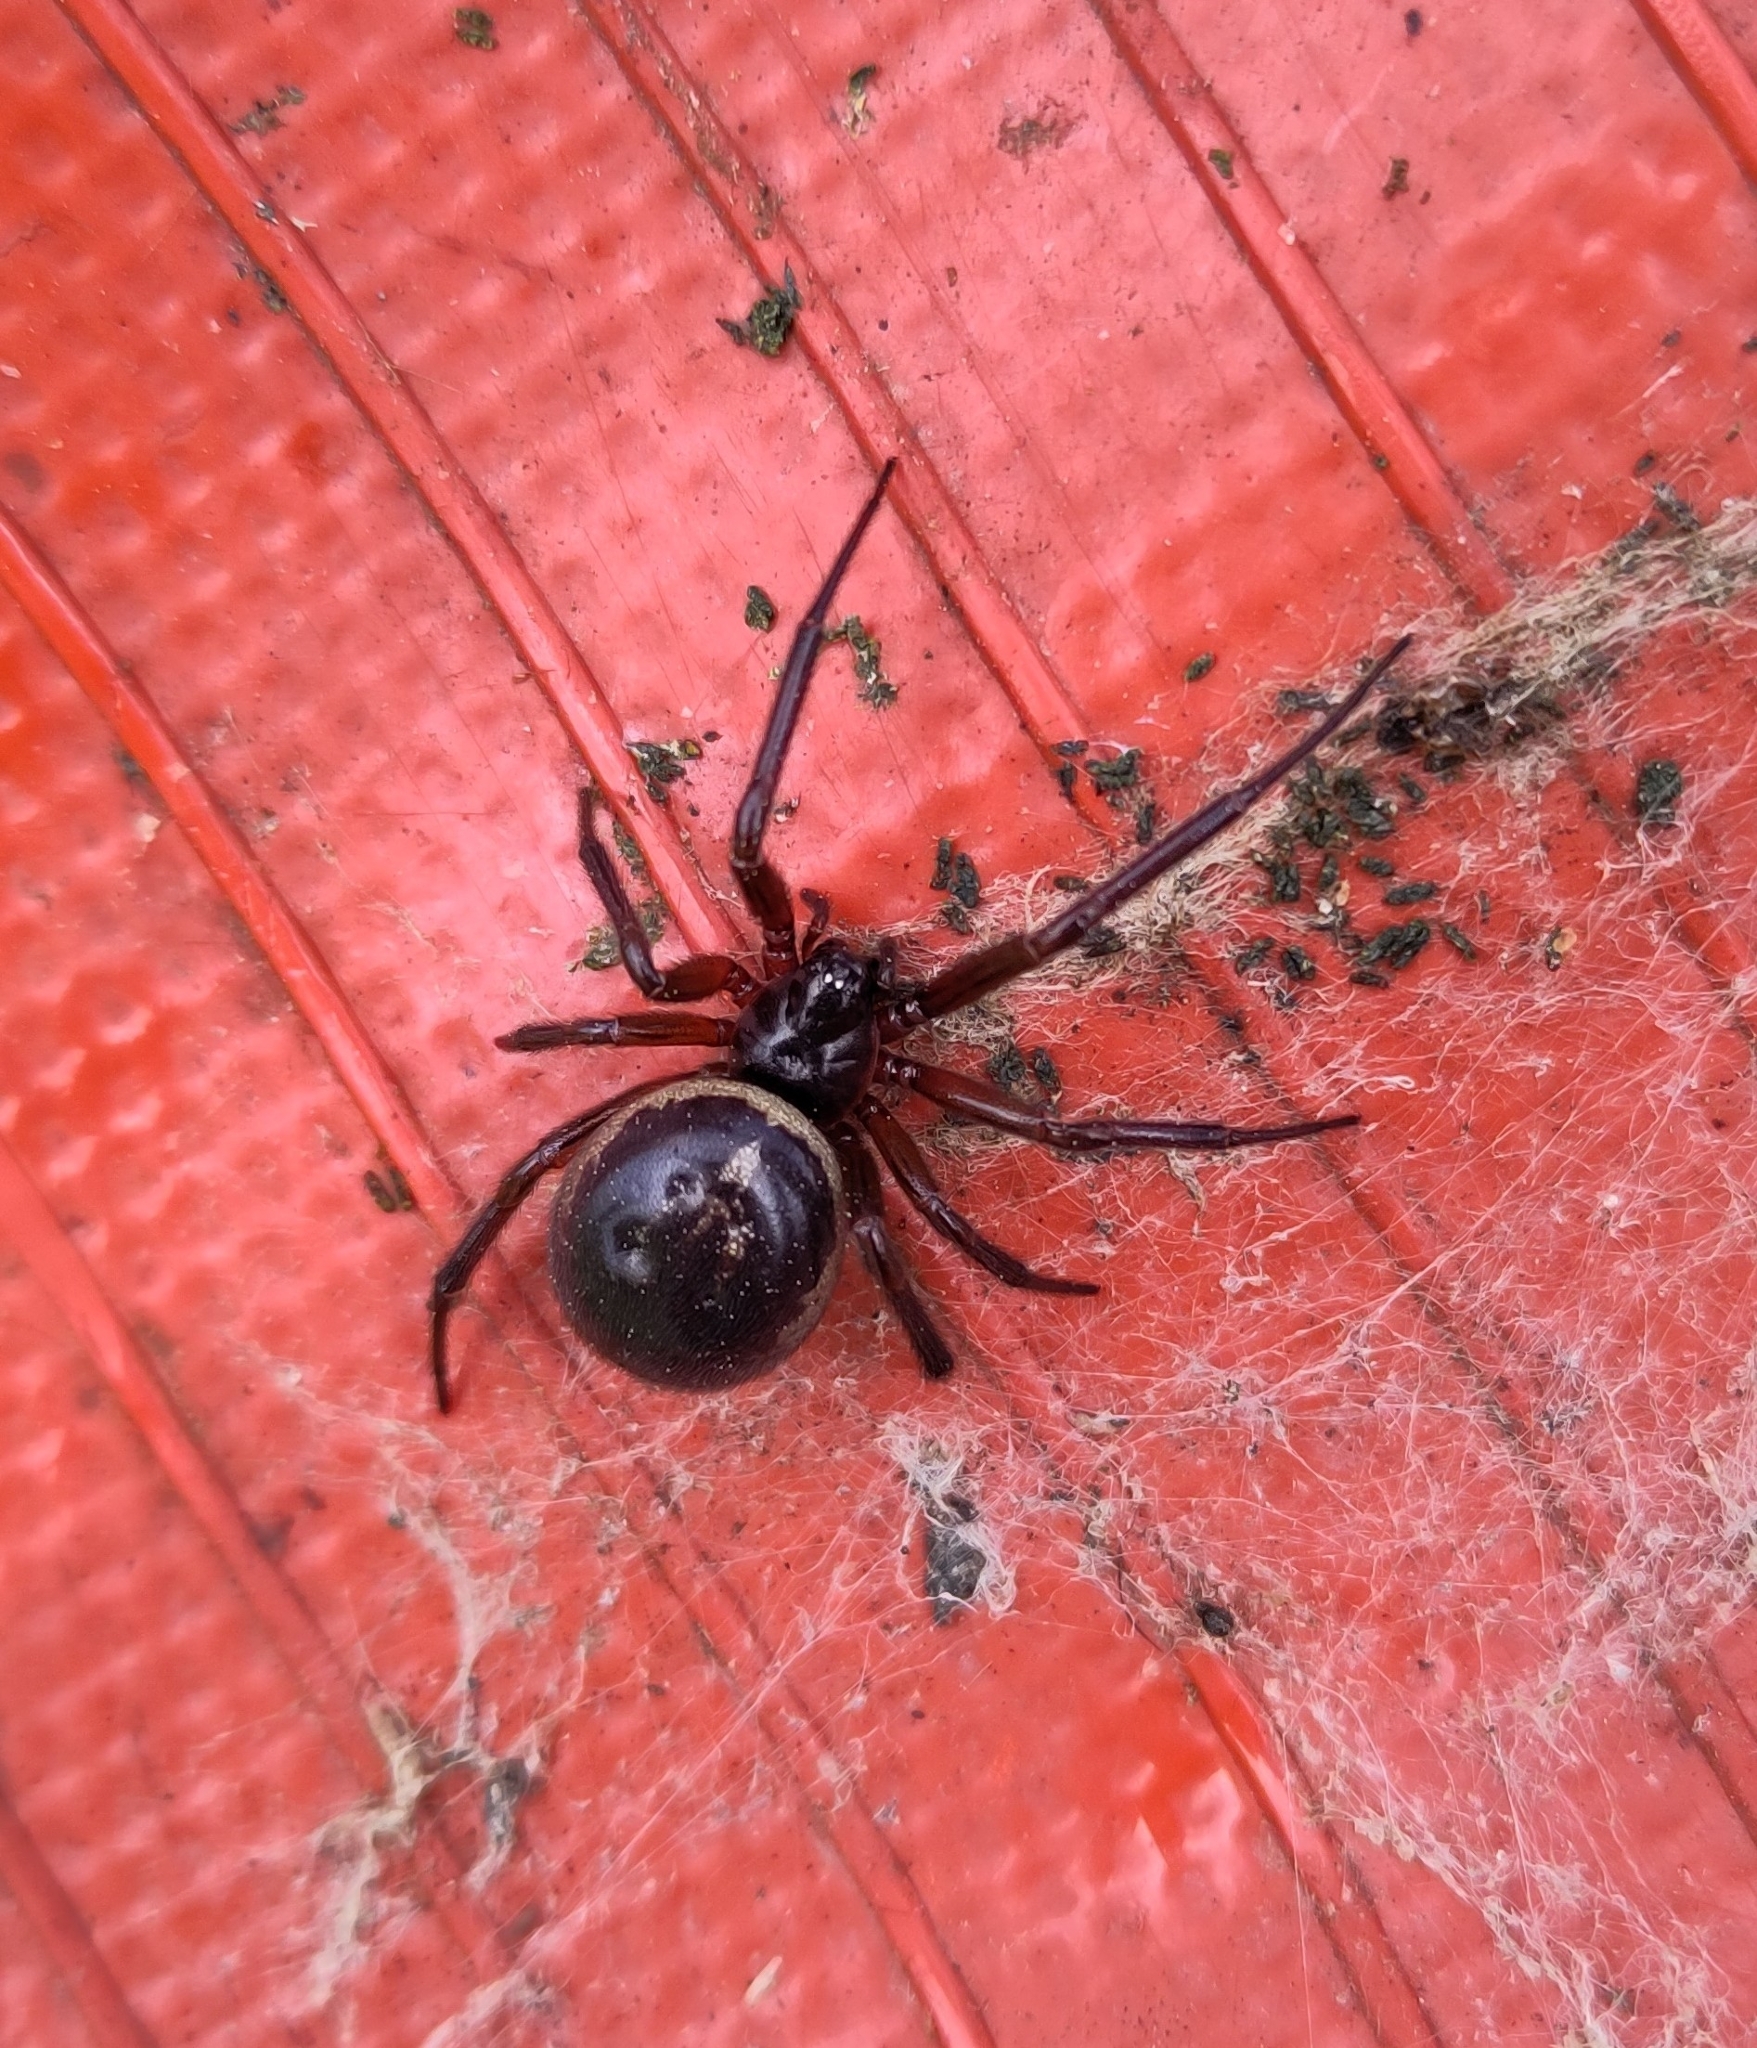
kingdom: Animalia
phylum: Arthropoda
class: Arachnida
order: Araneae
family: Theridiidae
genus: Steatoda
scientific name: Steatoda nobilis
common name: Cobweb weaver
